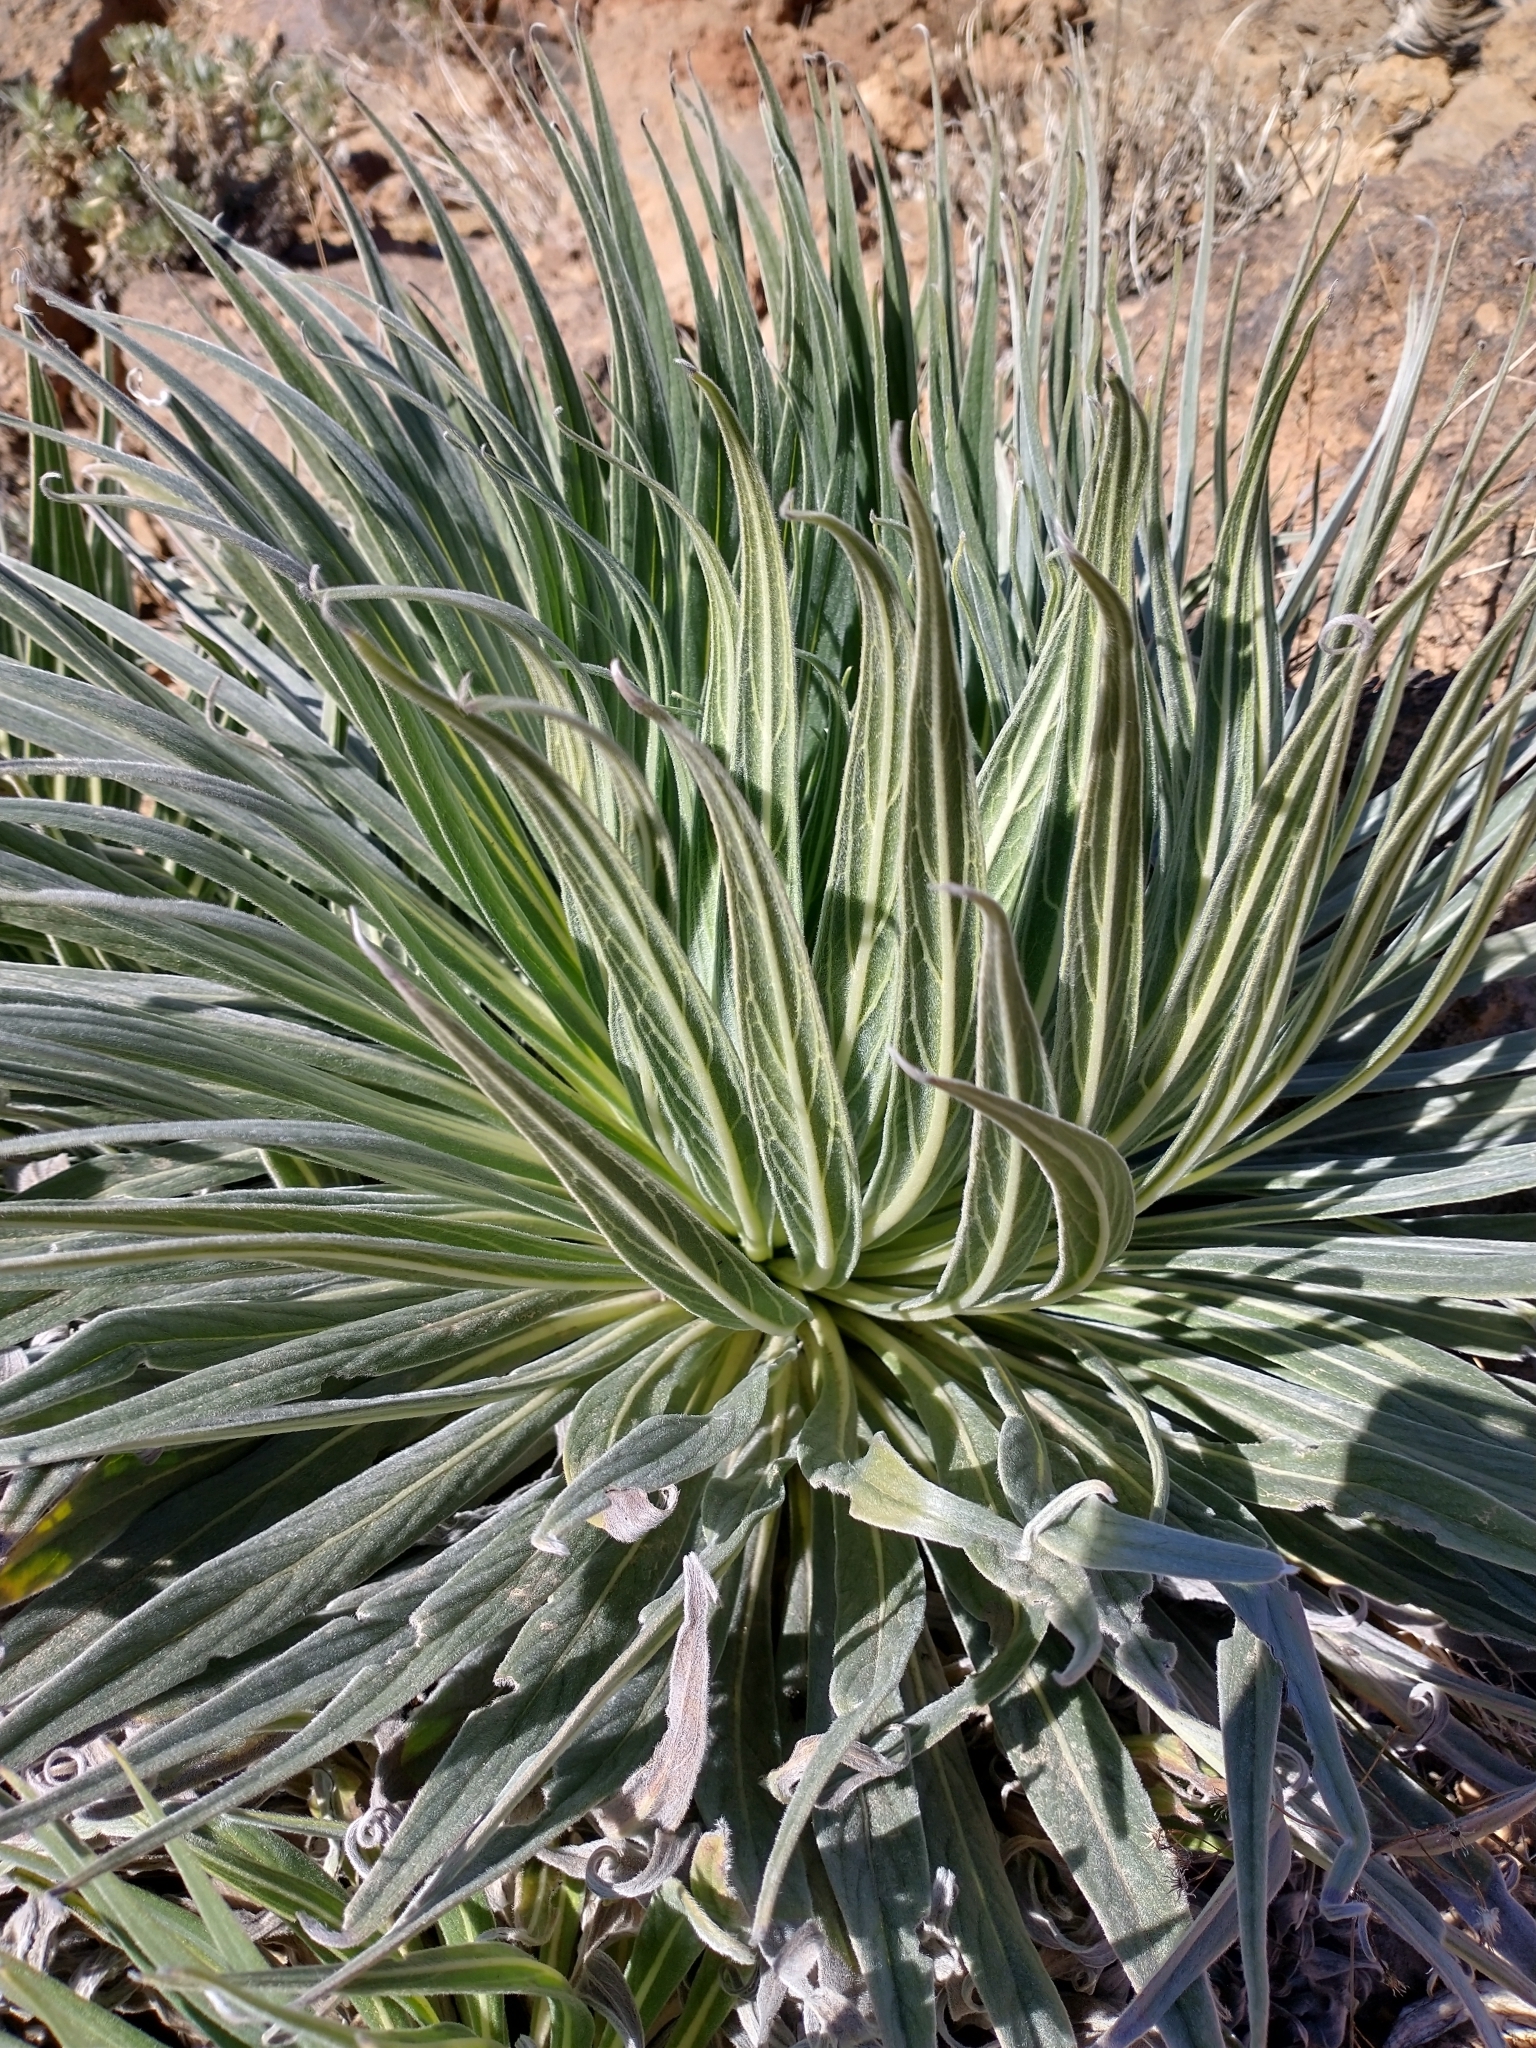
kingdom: Plantae
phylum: Tracheophyta
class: Magnoliopsida
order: Boraginales
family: Boraginaceae
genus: Echium
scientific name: Echium wildpretii
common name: Tower-of-jewels
